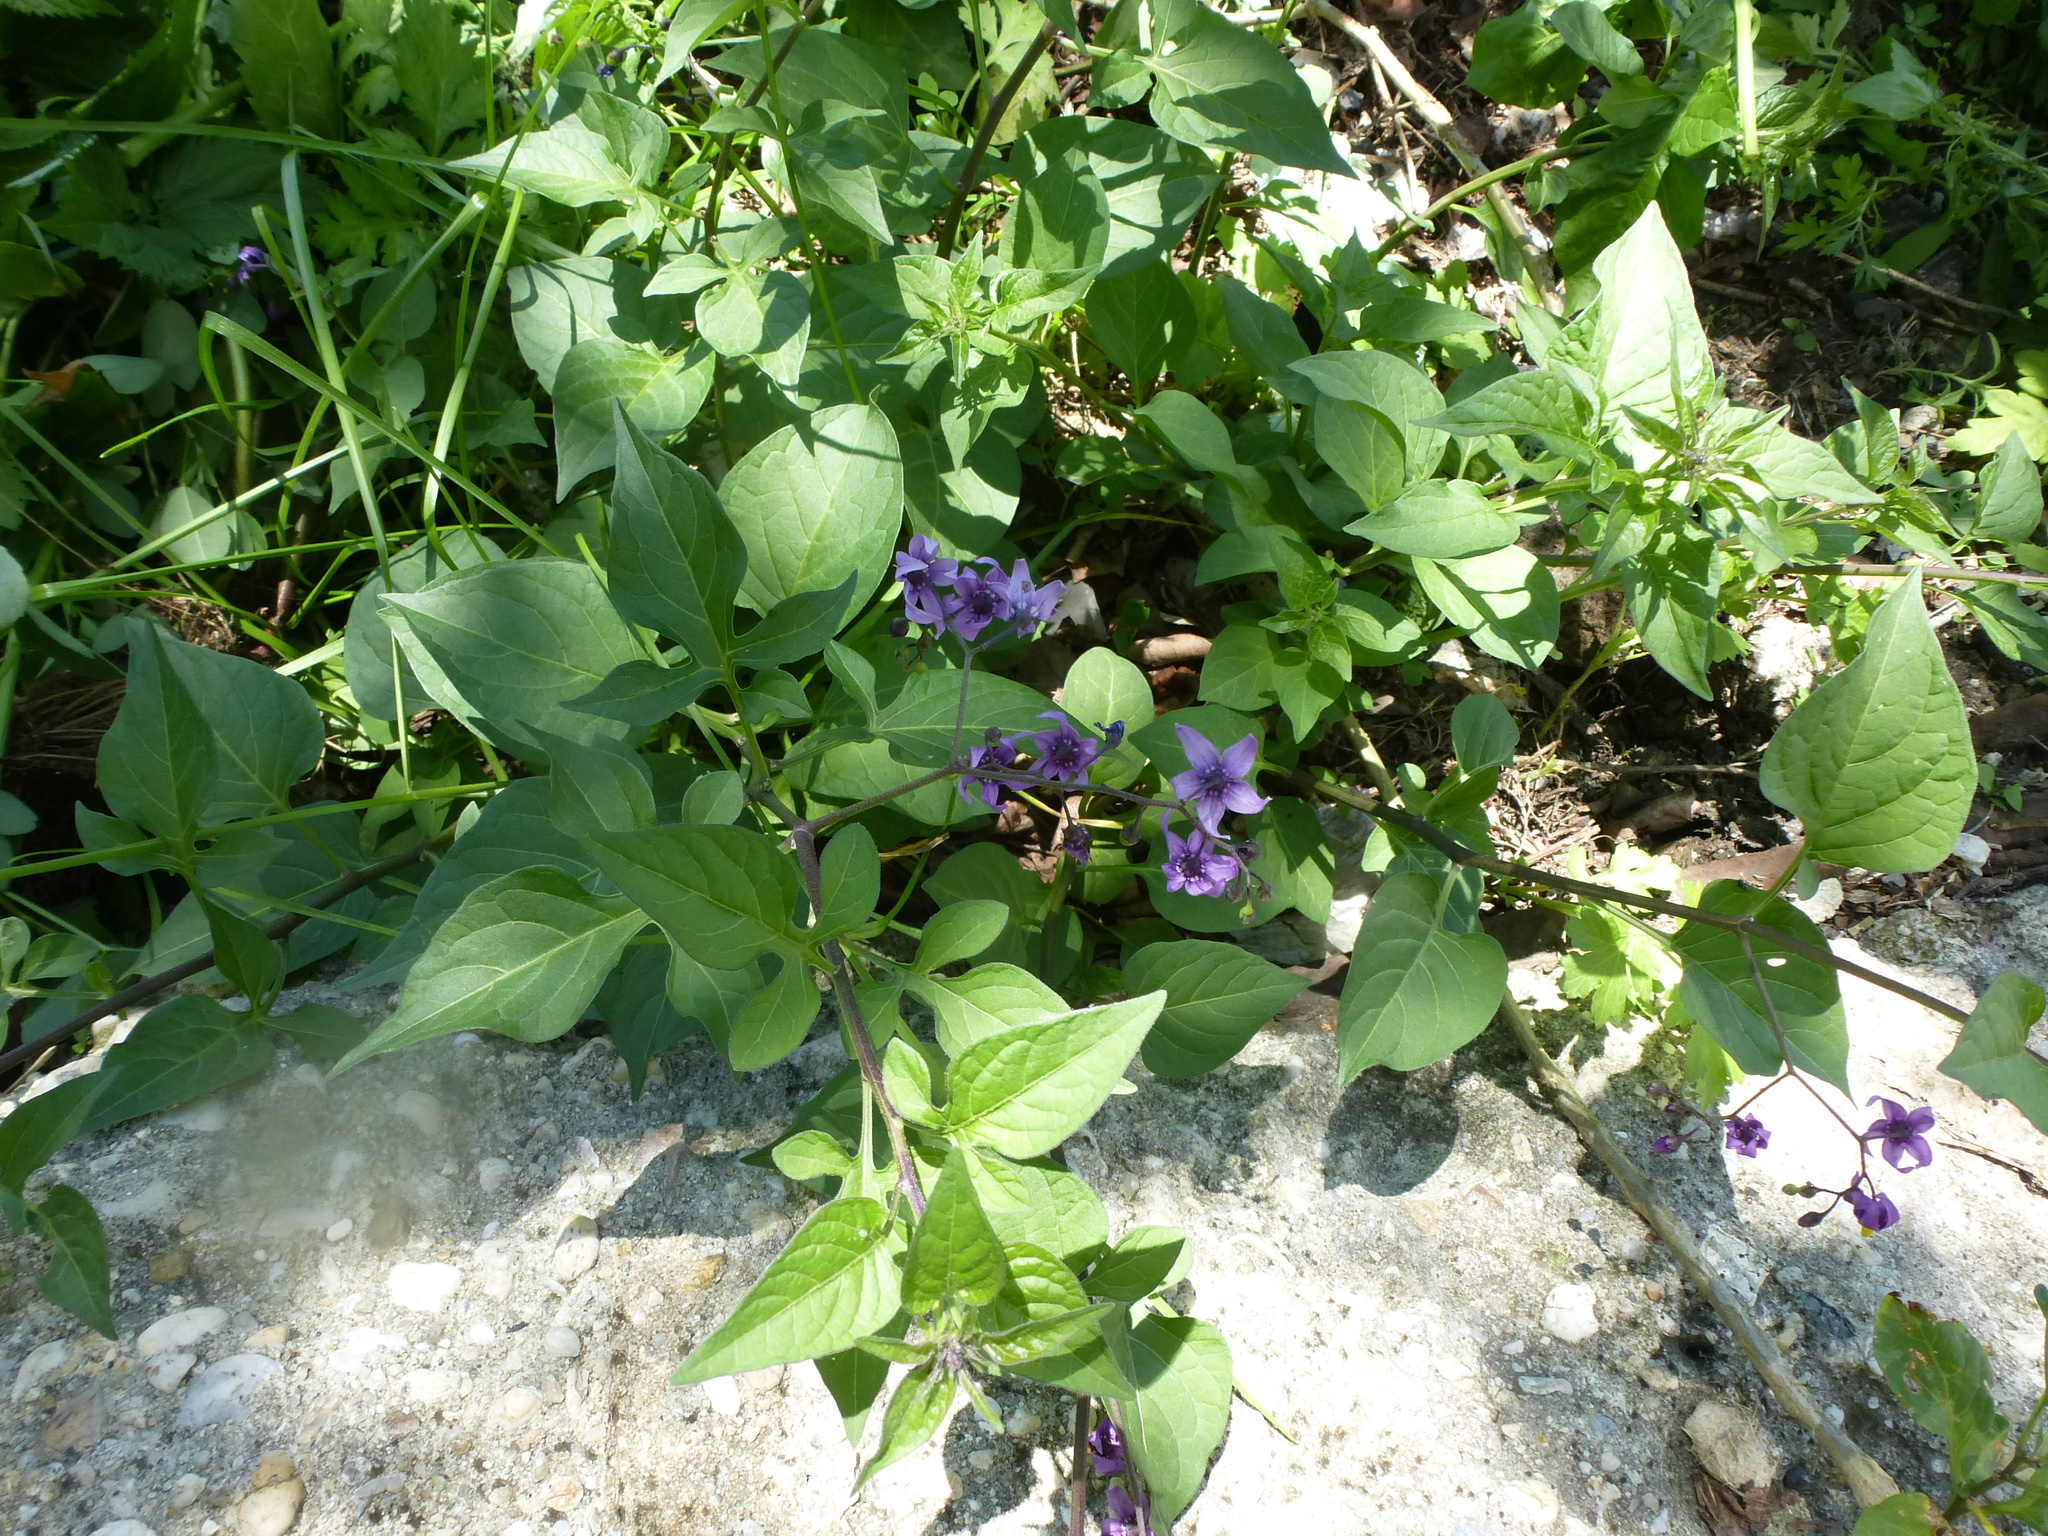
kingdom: Plantae
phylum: Tracheophyta
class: Magnoliopsida
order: Solanales
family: Solanaceae
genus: Solanum
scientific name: Solanum dulcamara
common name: Climbing nightshade
